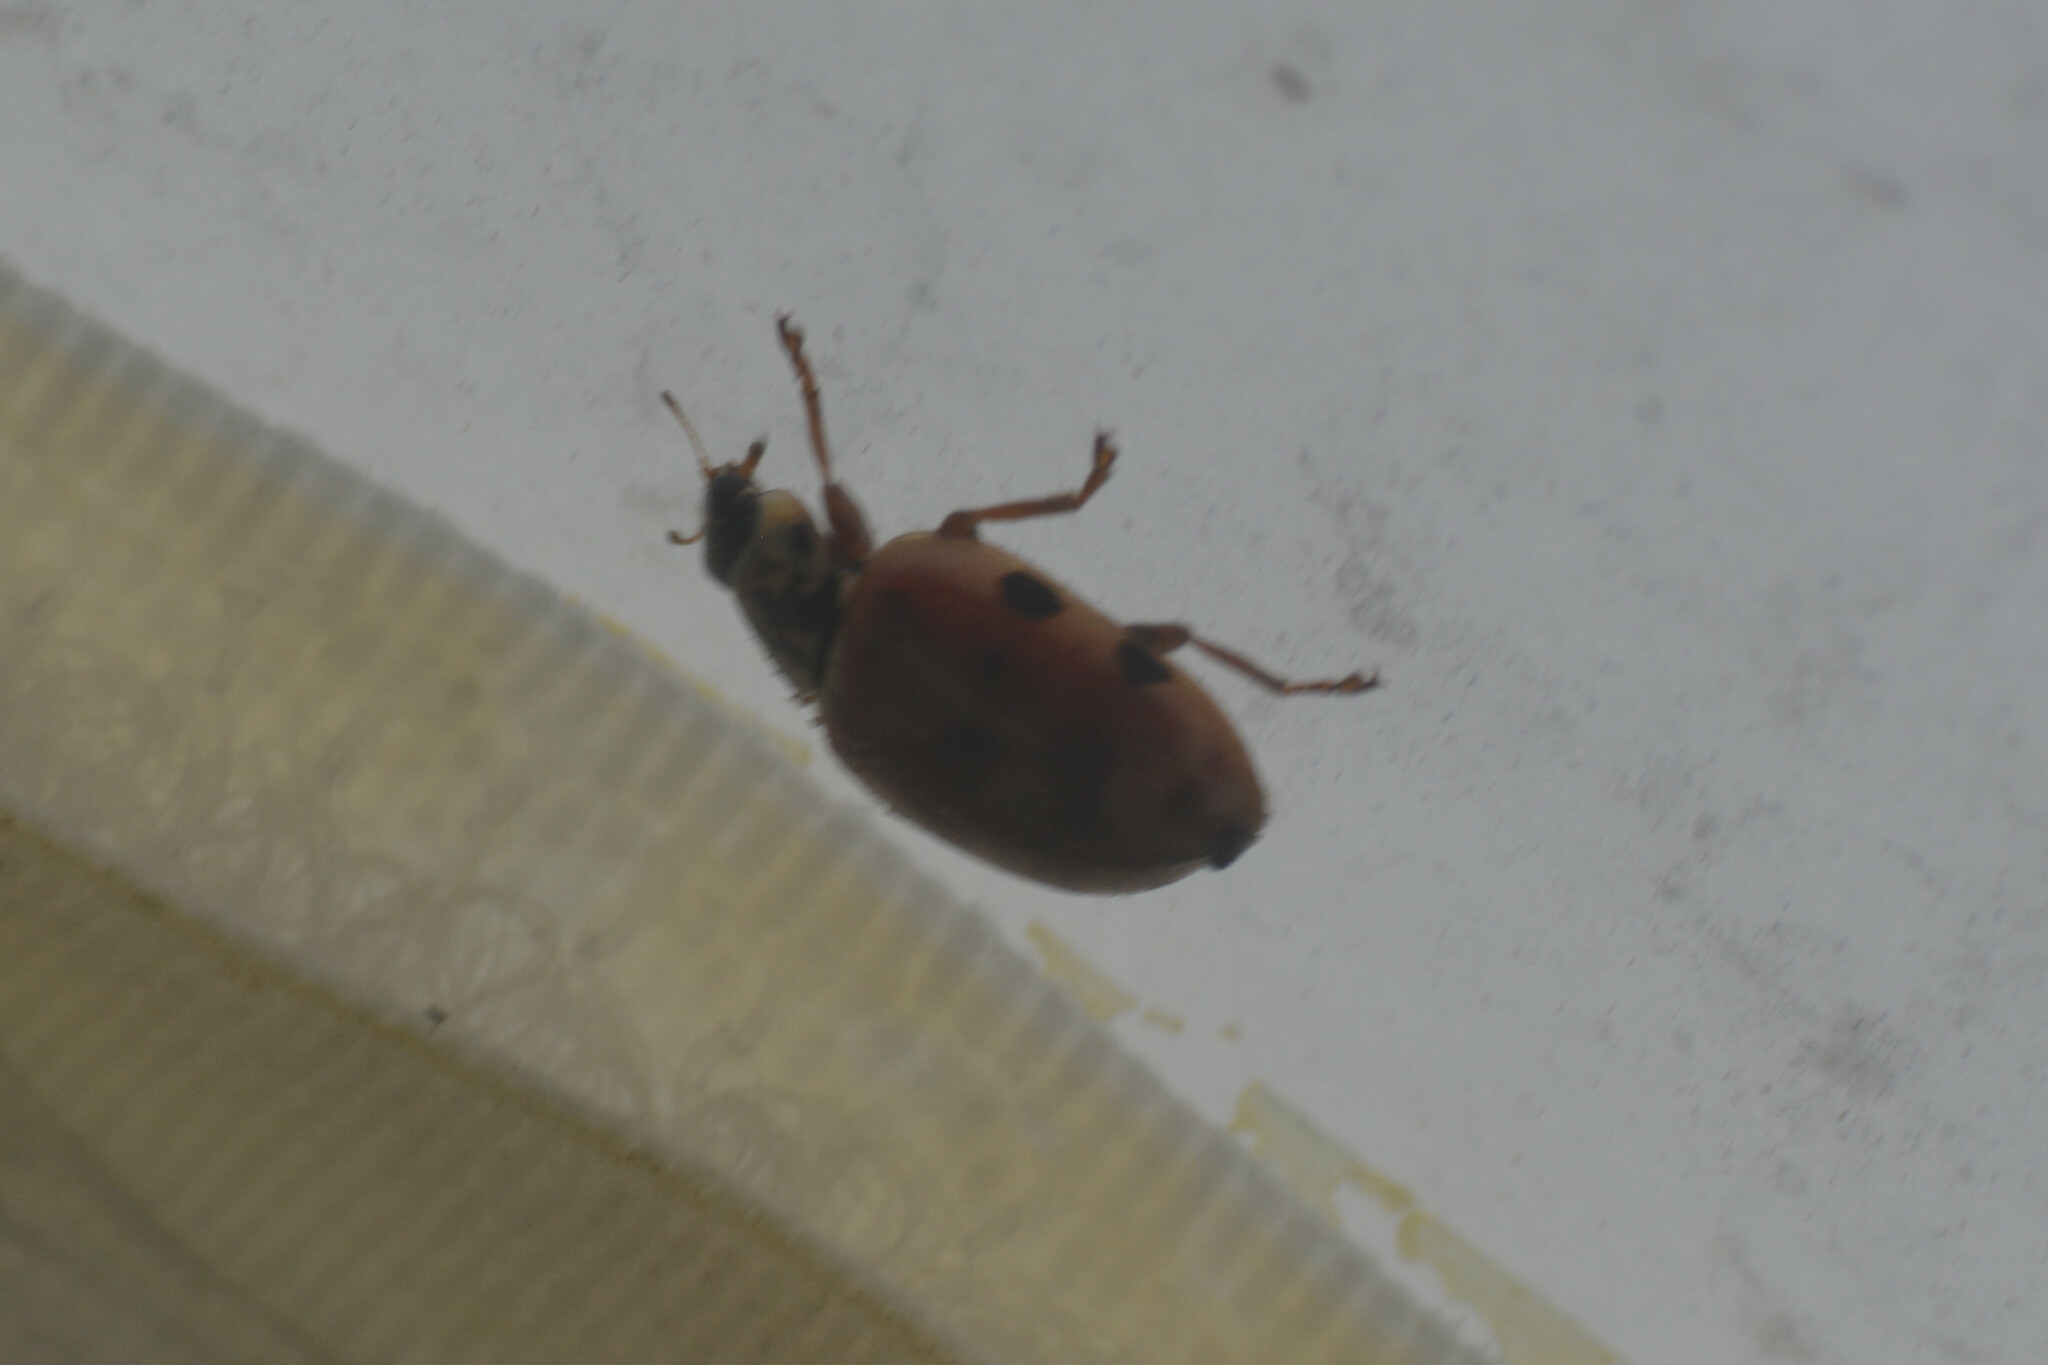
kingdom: Animalia
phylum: Arthropoda
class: Insecta
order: Coleoptera
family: Coccinellidae
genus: Harmonia
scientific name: Harmonia quadripunctata
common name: Cream-streaked ladybird
